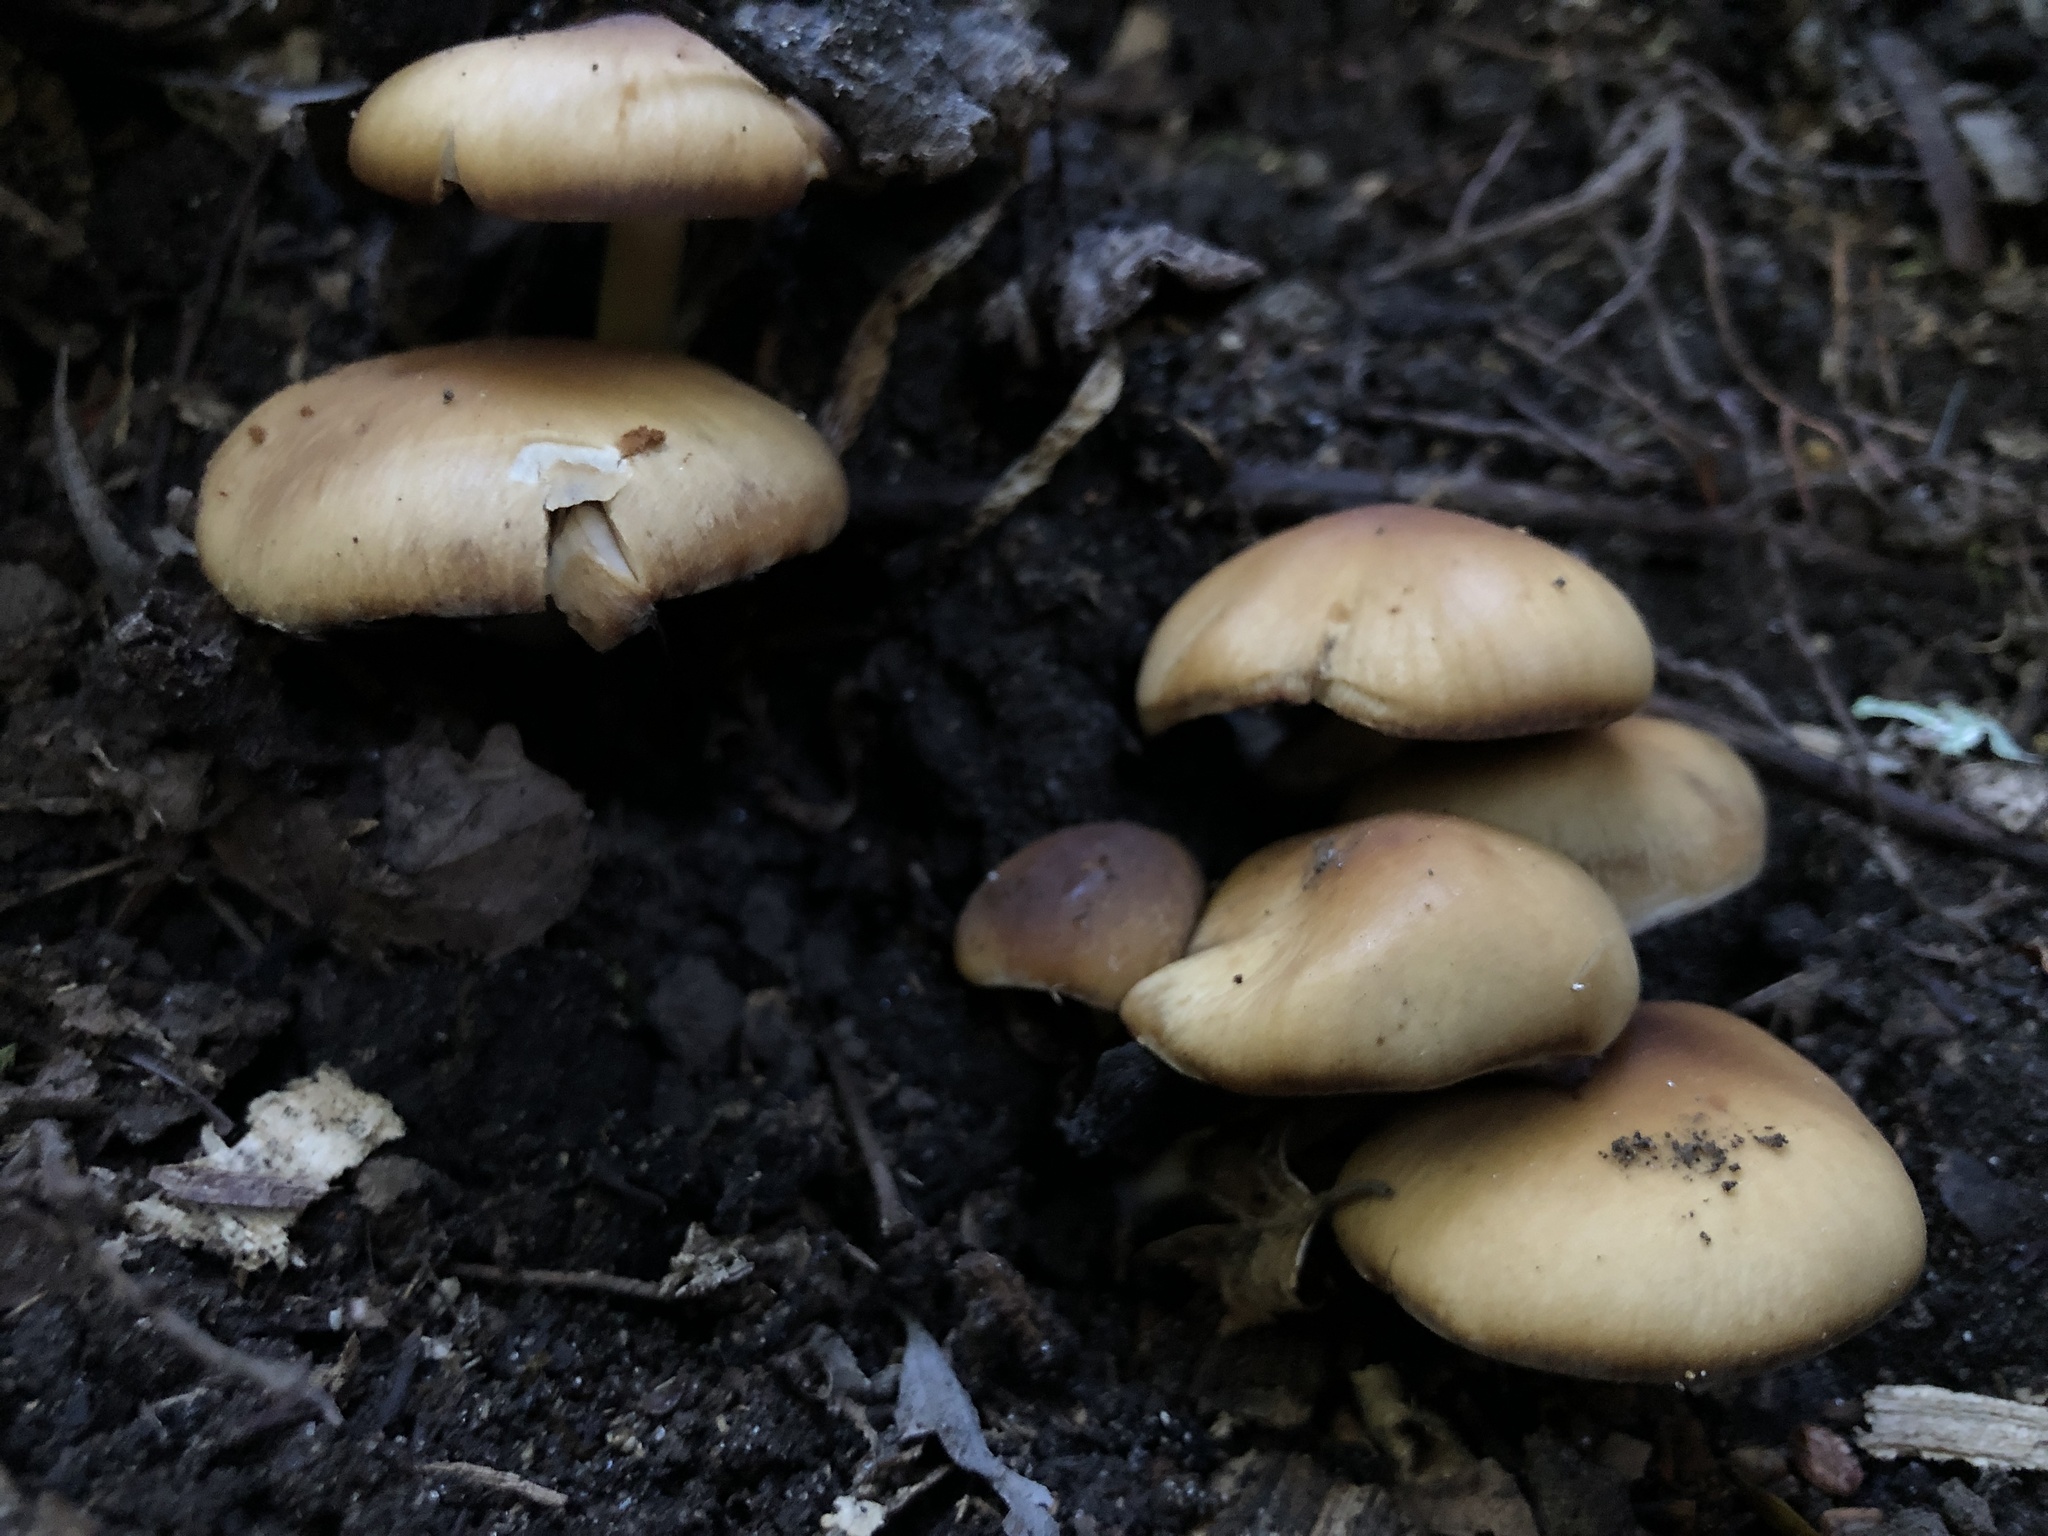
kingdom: Fungi
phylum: Basidiomycota
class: Agaricomycetes
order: Agaricales
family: Psathyrellaceae
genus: Psathyrella
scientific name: Psathyrella piluliformis
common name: Common stump brittlestem
